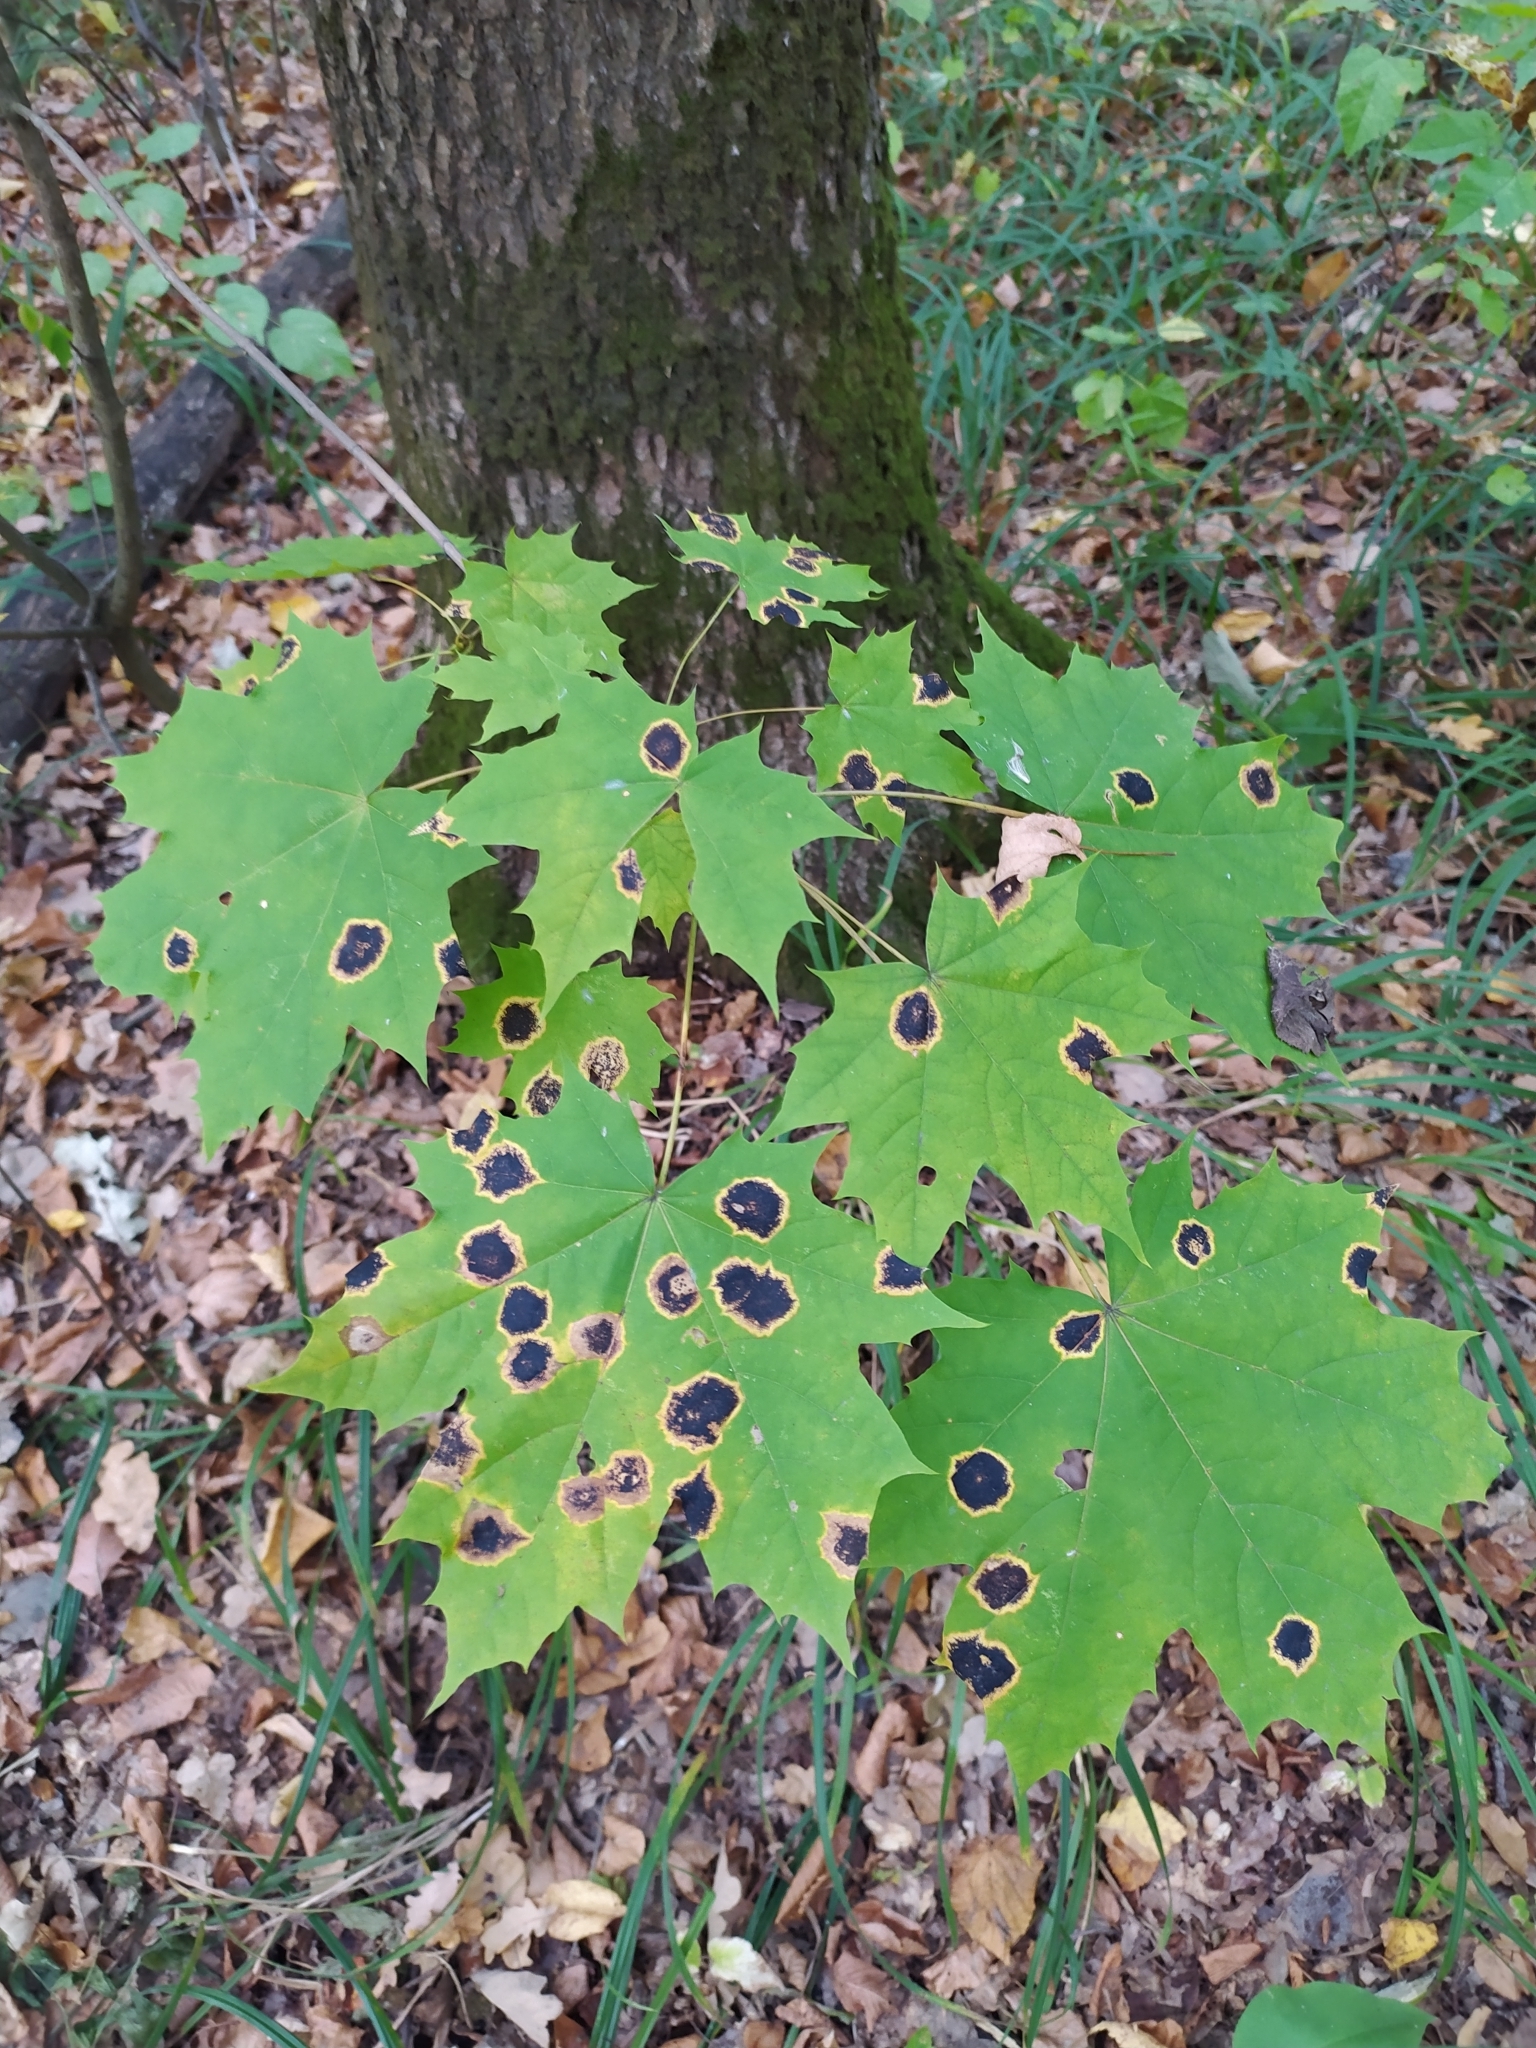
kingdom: Fungi
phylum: Ascomycota
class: Leotiomycetes
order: Rhytismatales
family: Rhytismataceae
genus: Rhytisma
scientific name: Rhytisma acerinum
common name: European tar spot
